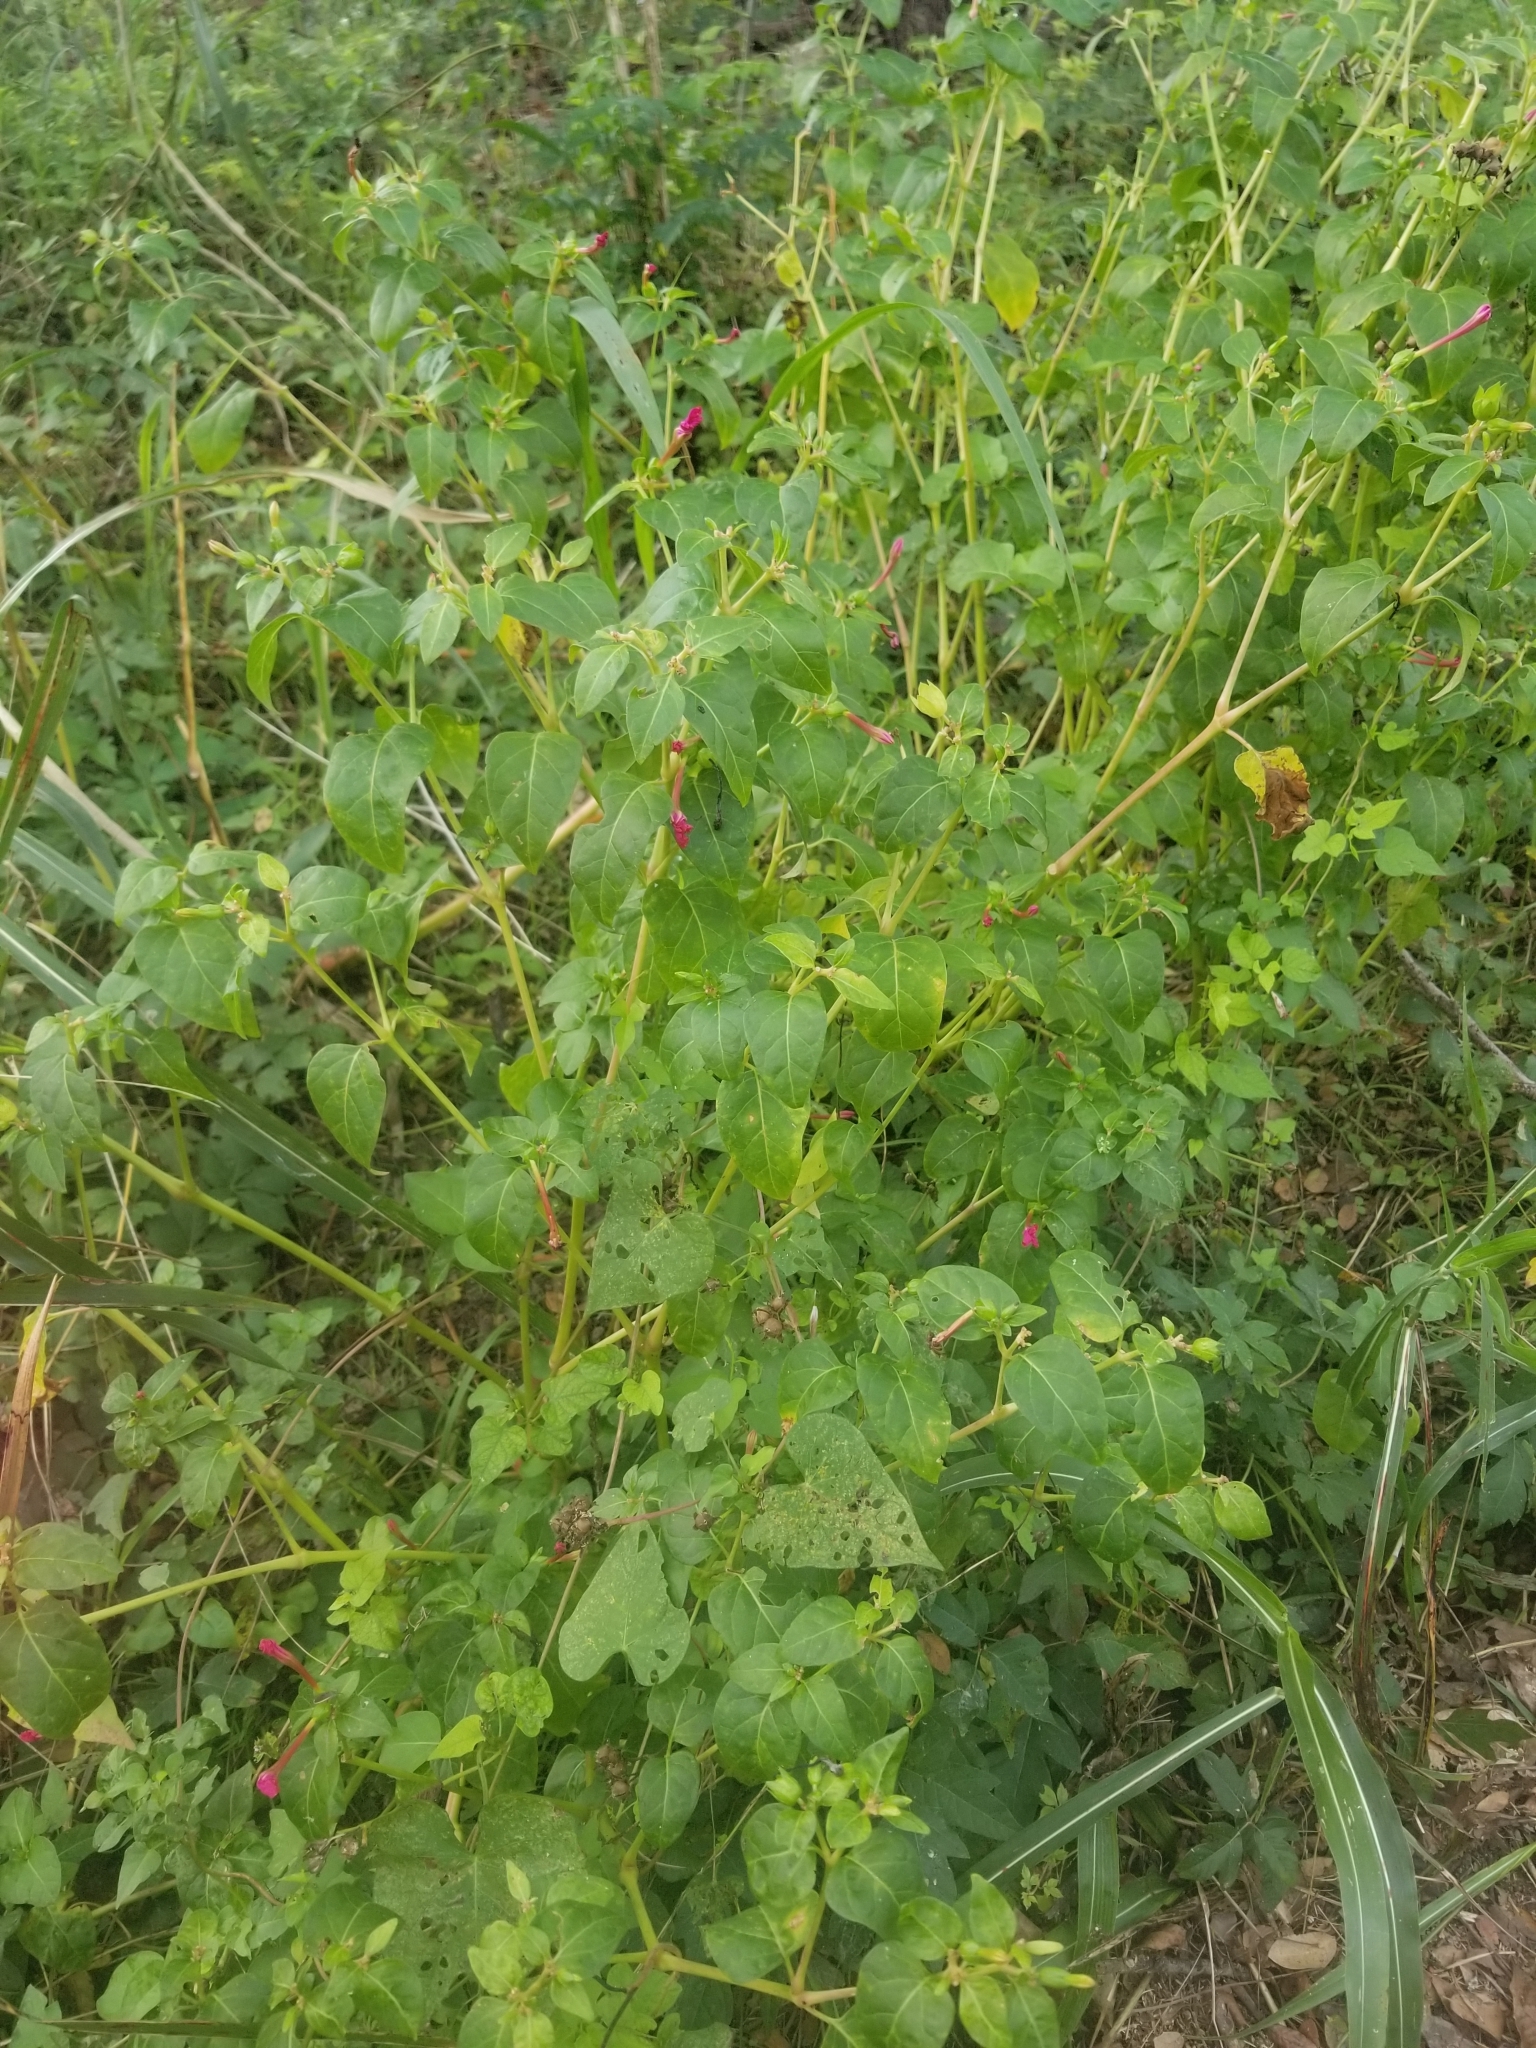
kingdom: Plantae
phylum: Tracheophyta
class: Magnoliopsida
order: Caryophyllales
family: Nyctaginaceae
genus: Mirabilis
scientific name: Mirabilis jalapa
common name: Marvel-of-peru
